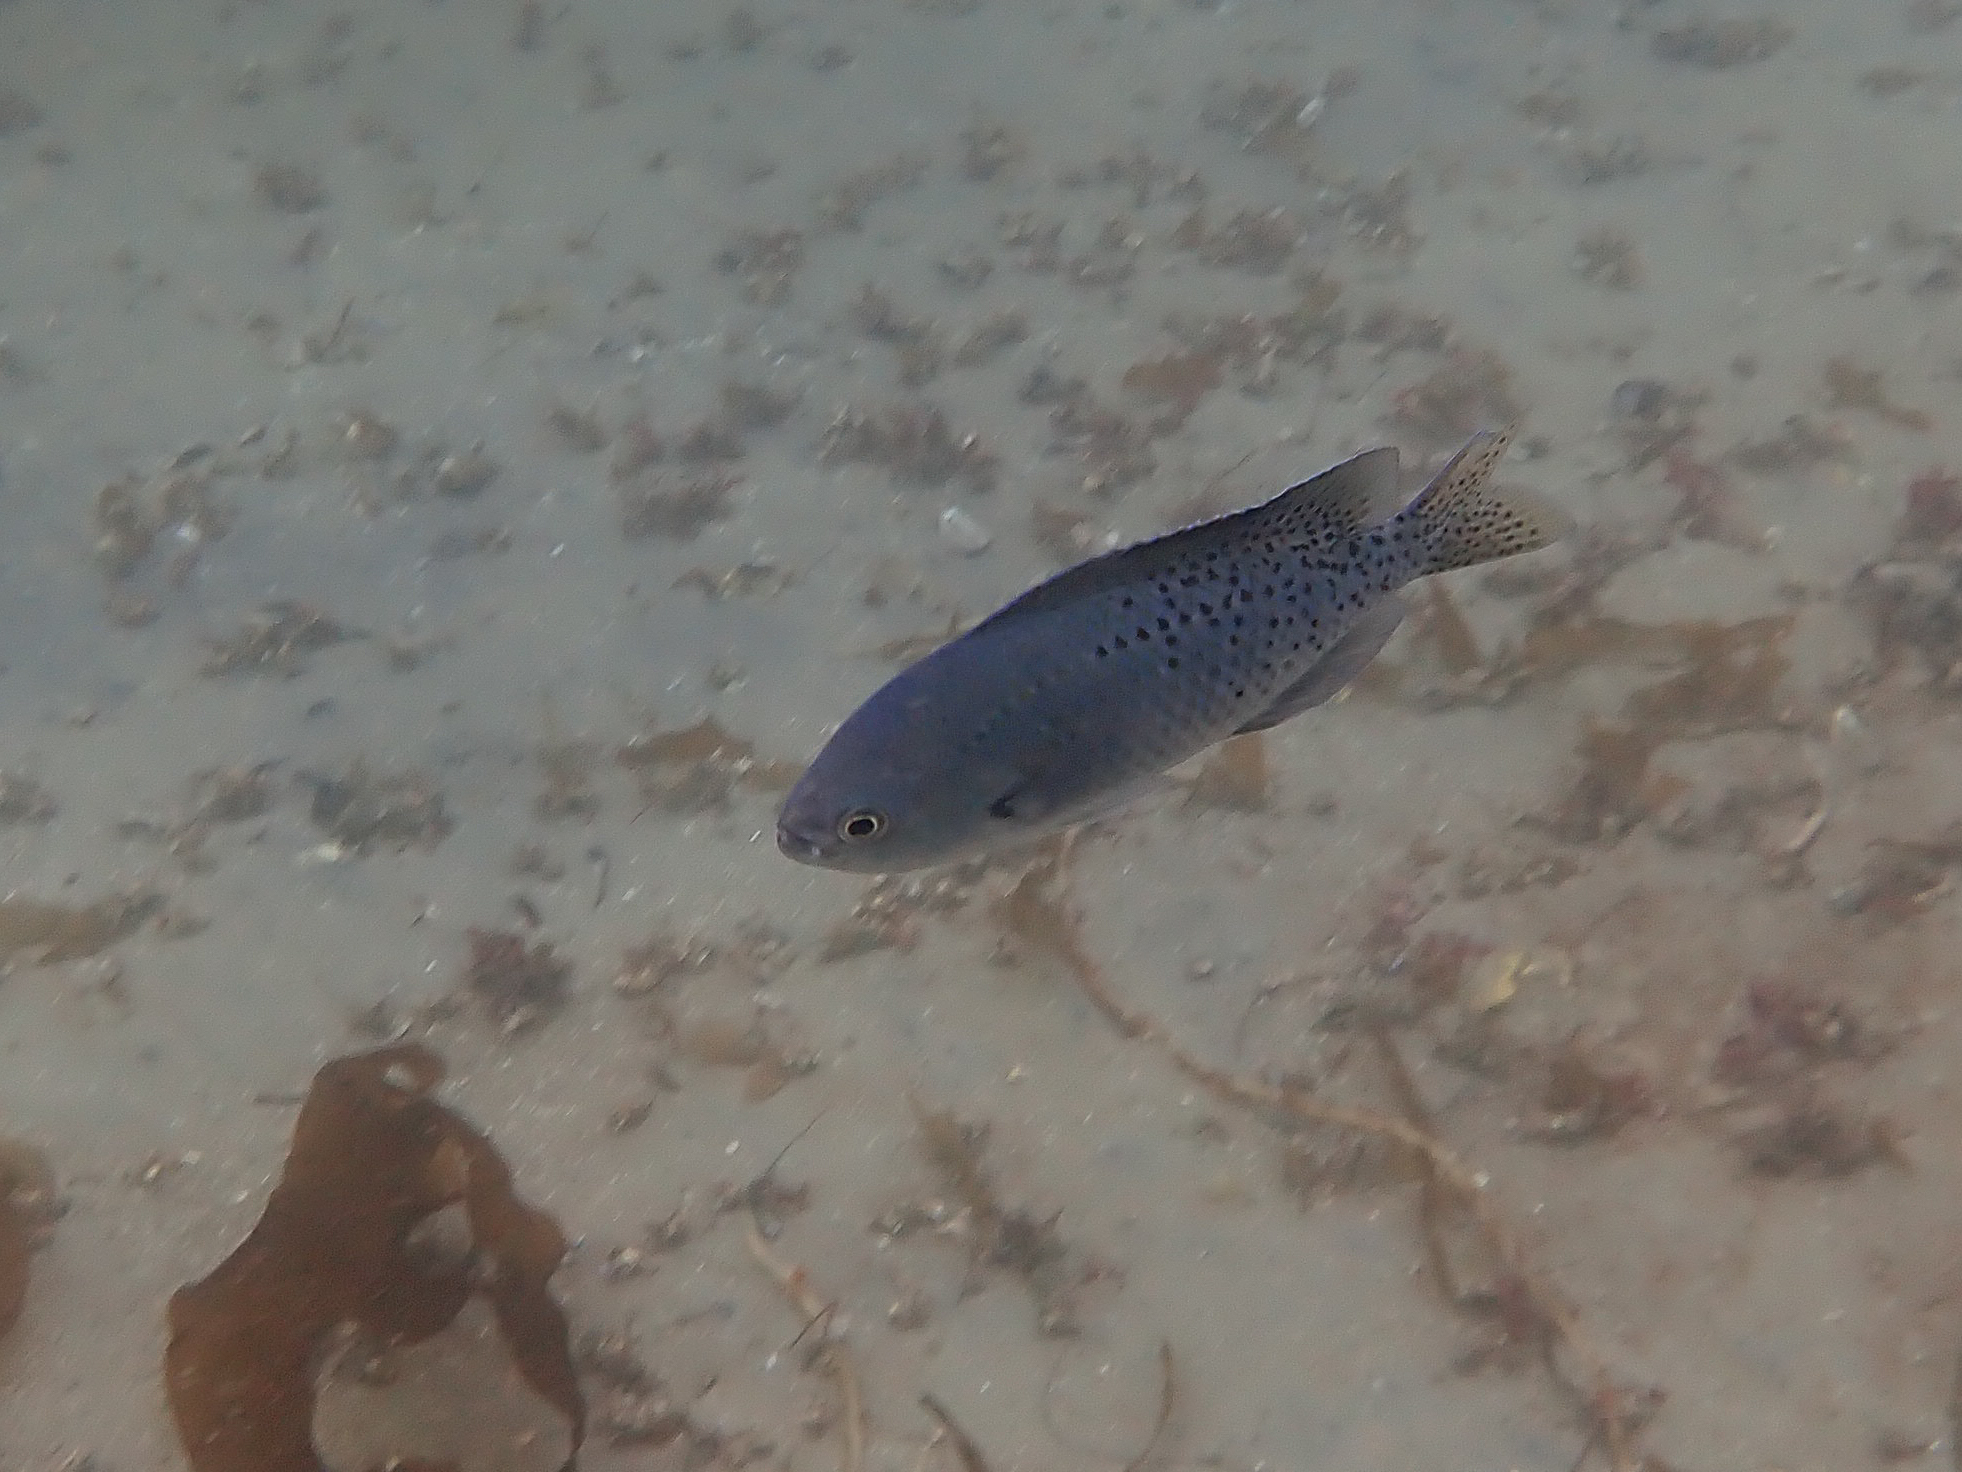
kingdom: Animalia
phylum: Chordata
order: Perciformes
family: Pomacentridae
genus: Chromis
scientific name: Chromis punctipinnis
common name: Blacksmith
